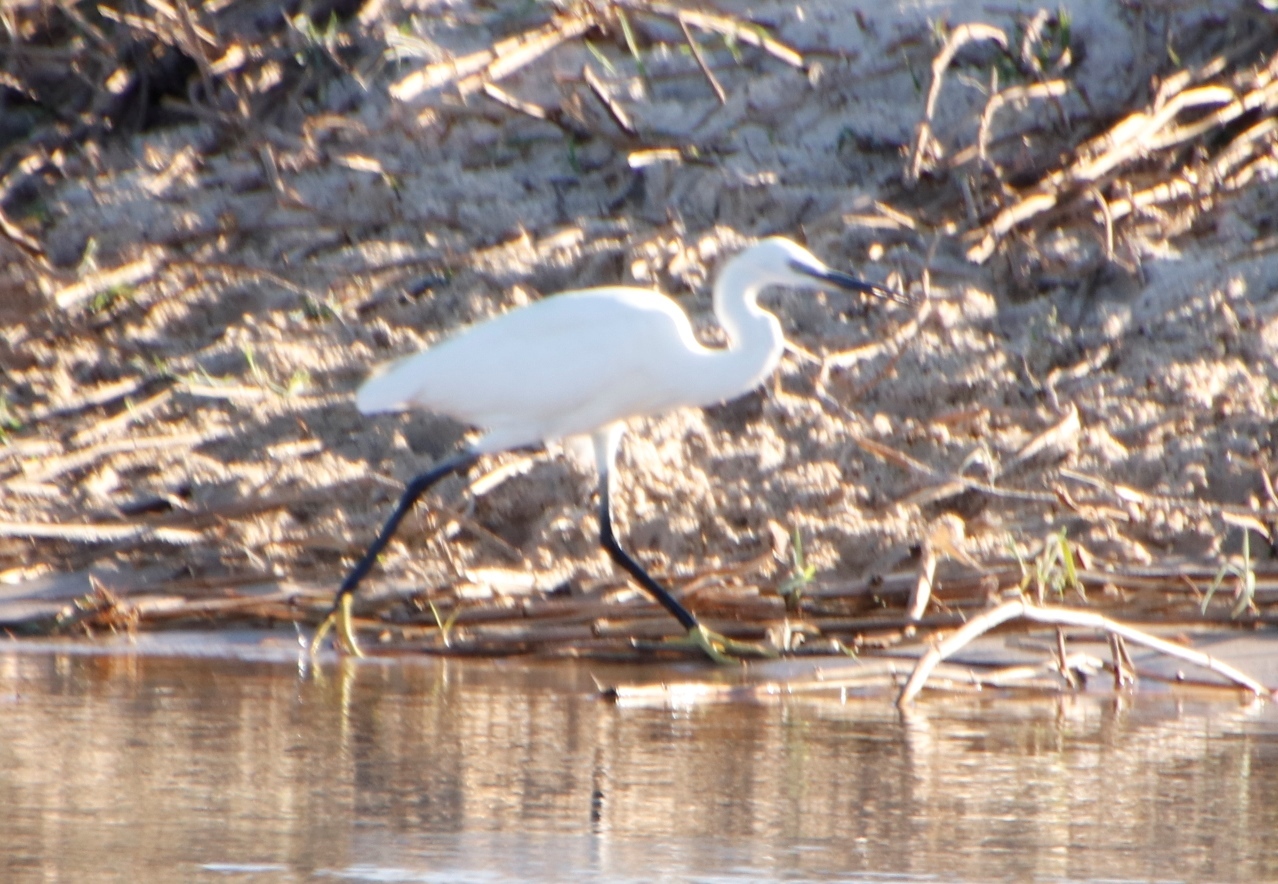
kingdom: Animalia
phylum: Chordata
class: Aves
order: Pelecaniformes
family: Ardeidae
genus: Egretta
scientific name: Egretta garzetta
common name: Little egret
